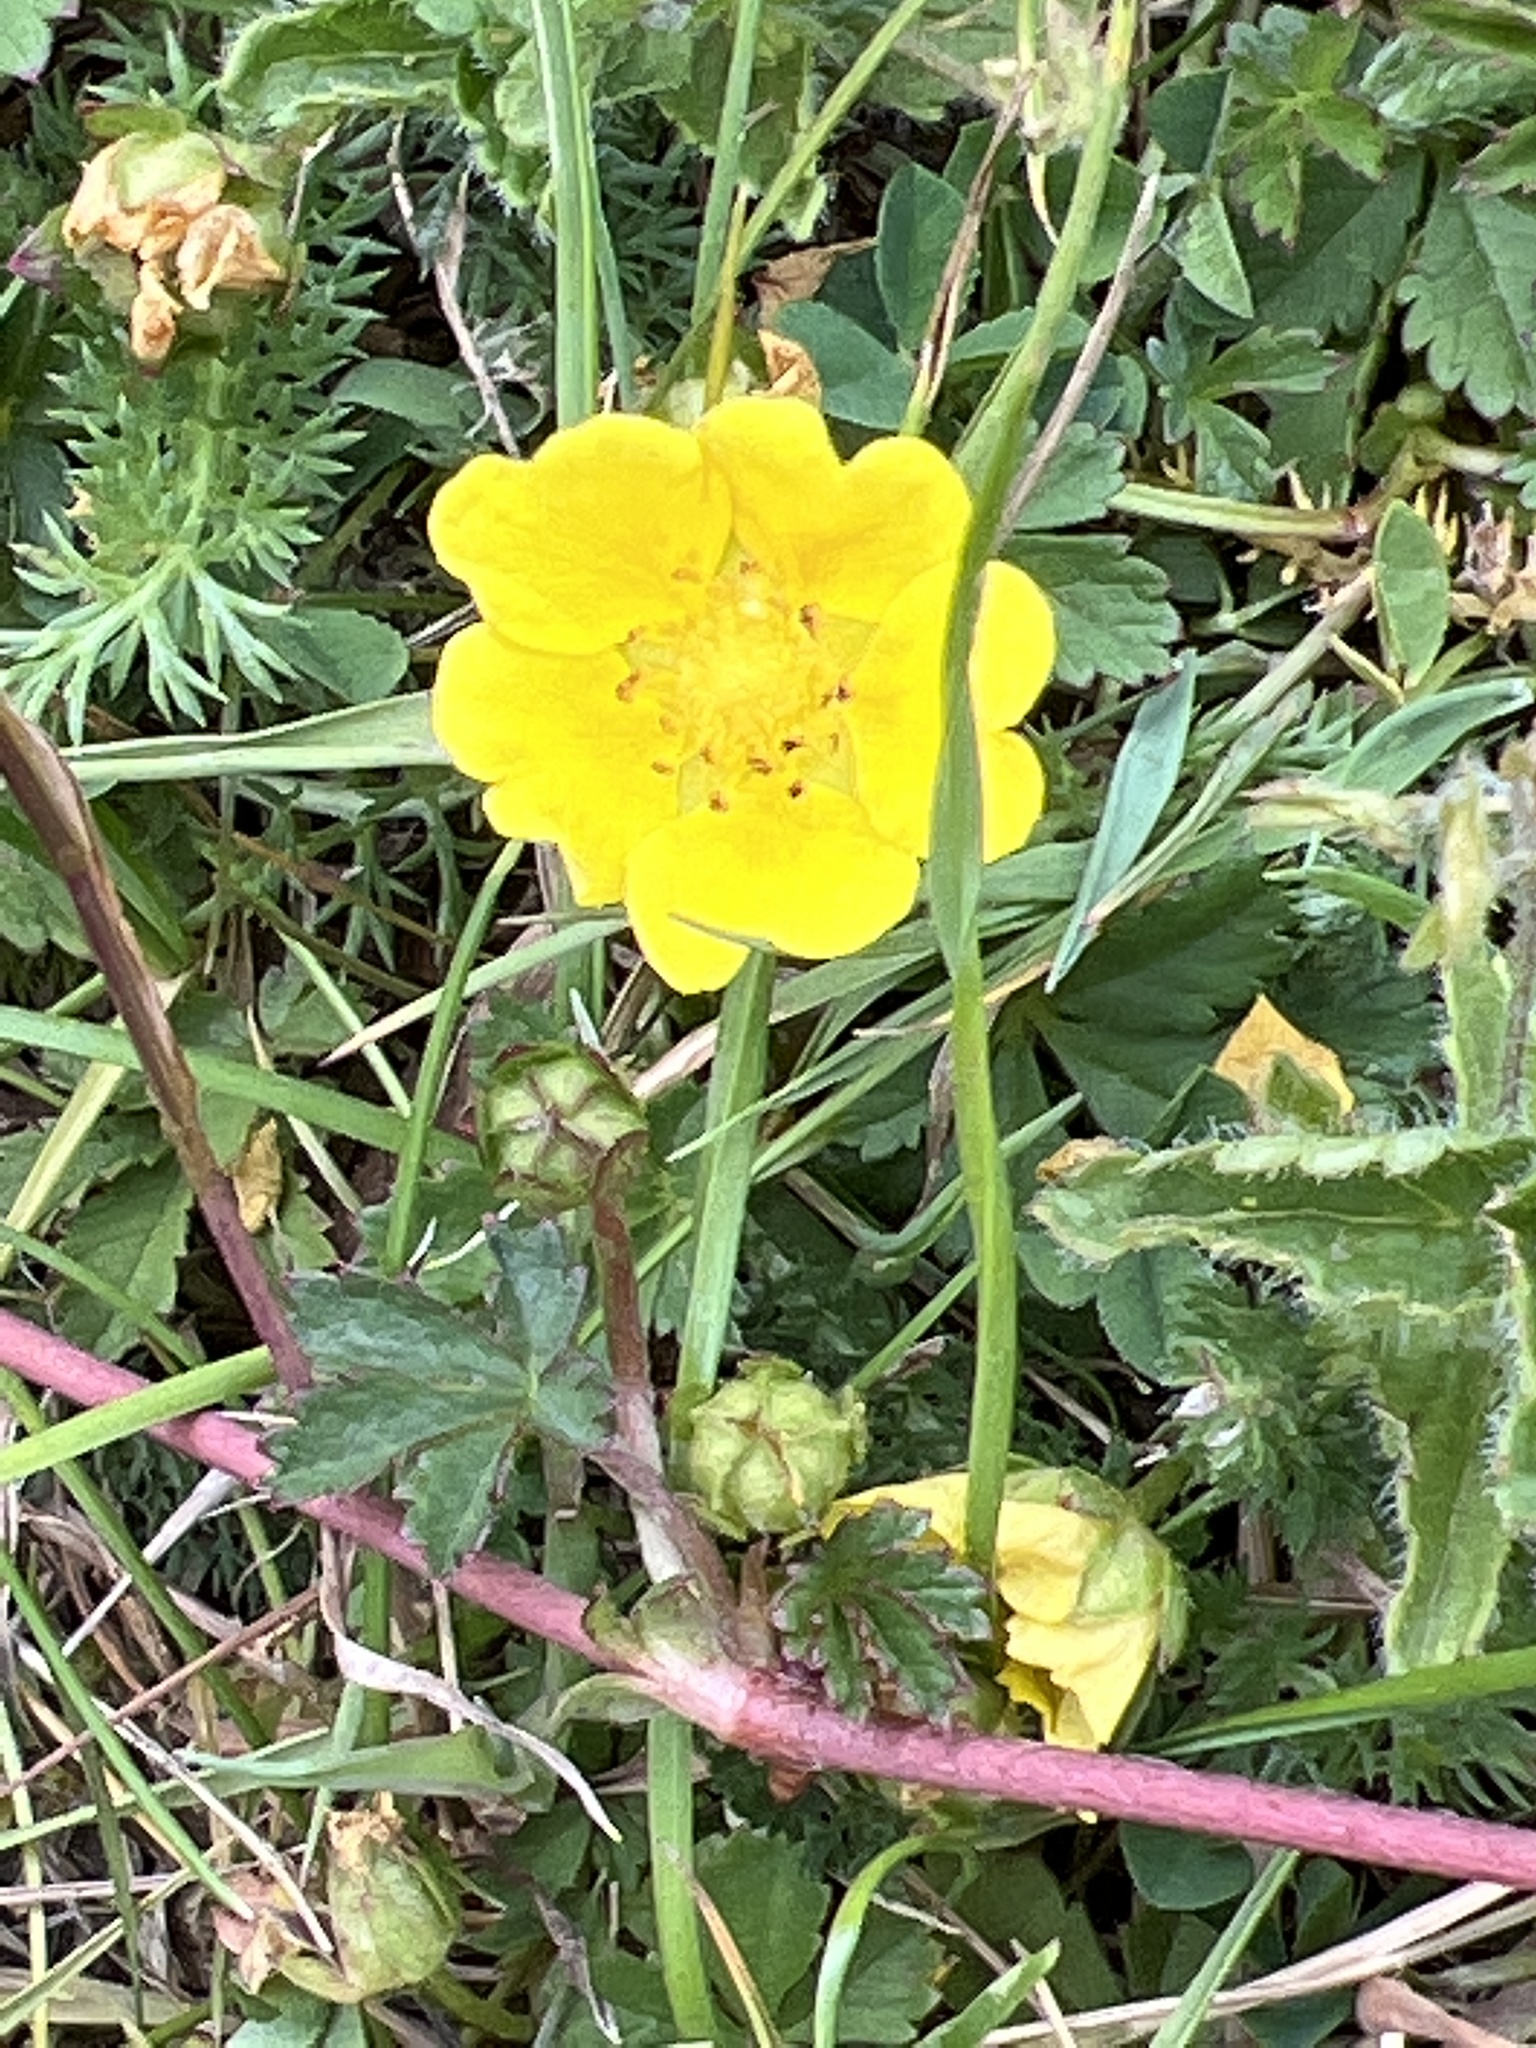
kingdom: Plantae
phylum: Tracheophyta
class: Magnoliopsida
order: Rosales
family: Rosaceae
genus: Potentilla
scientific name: Potentilla reptans
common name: Creeping cinquefoil
